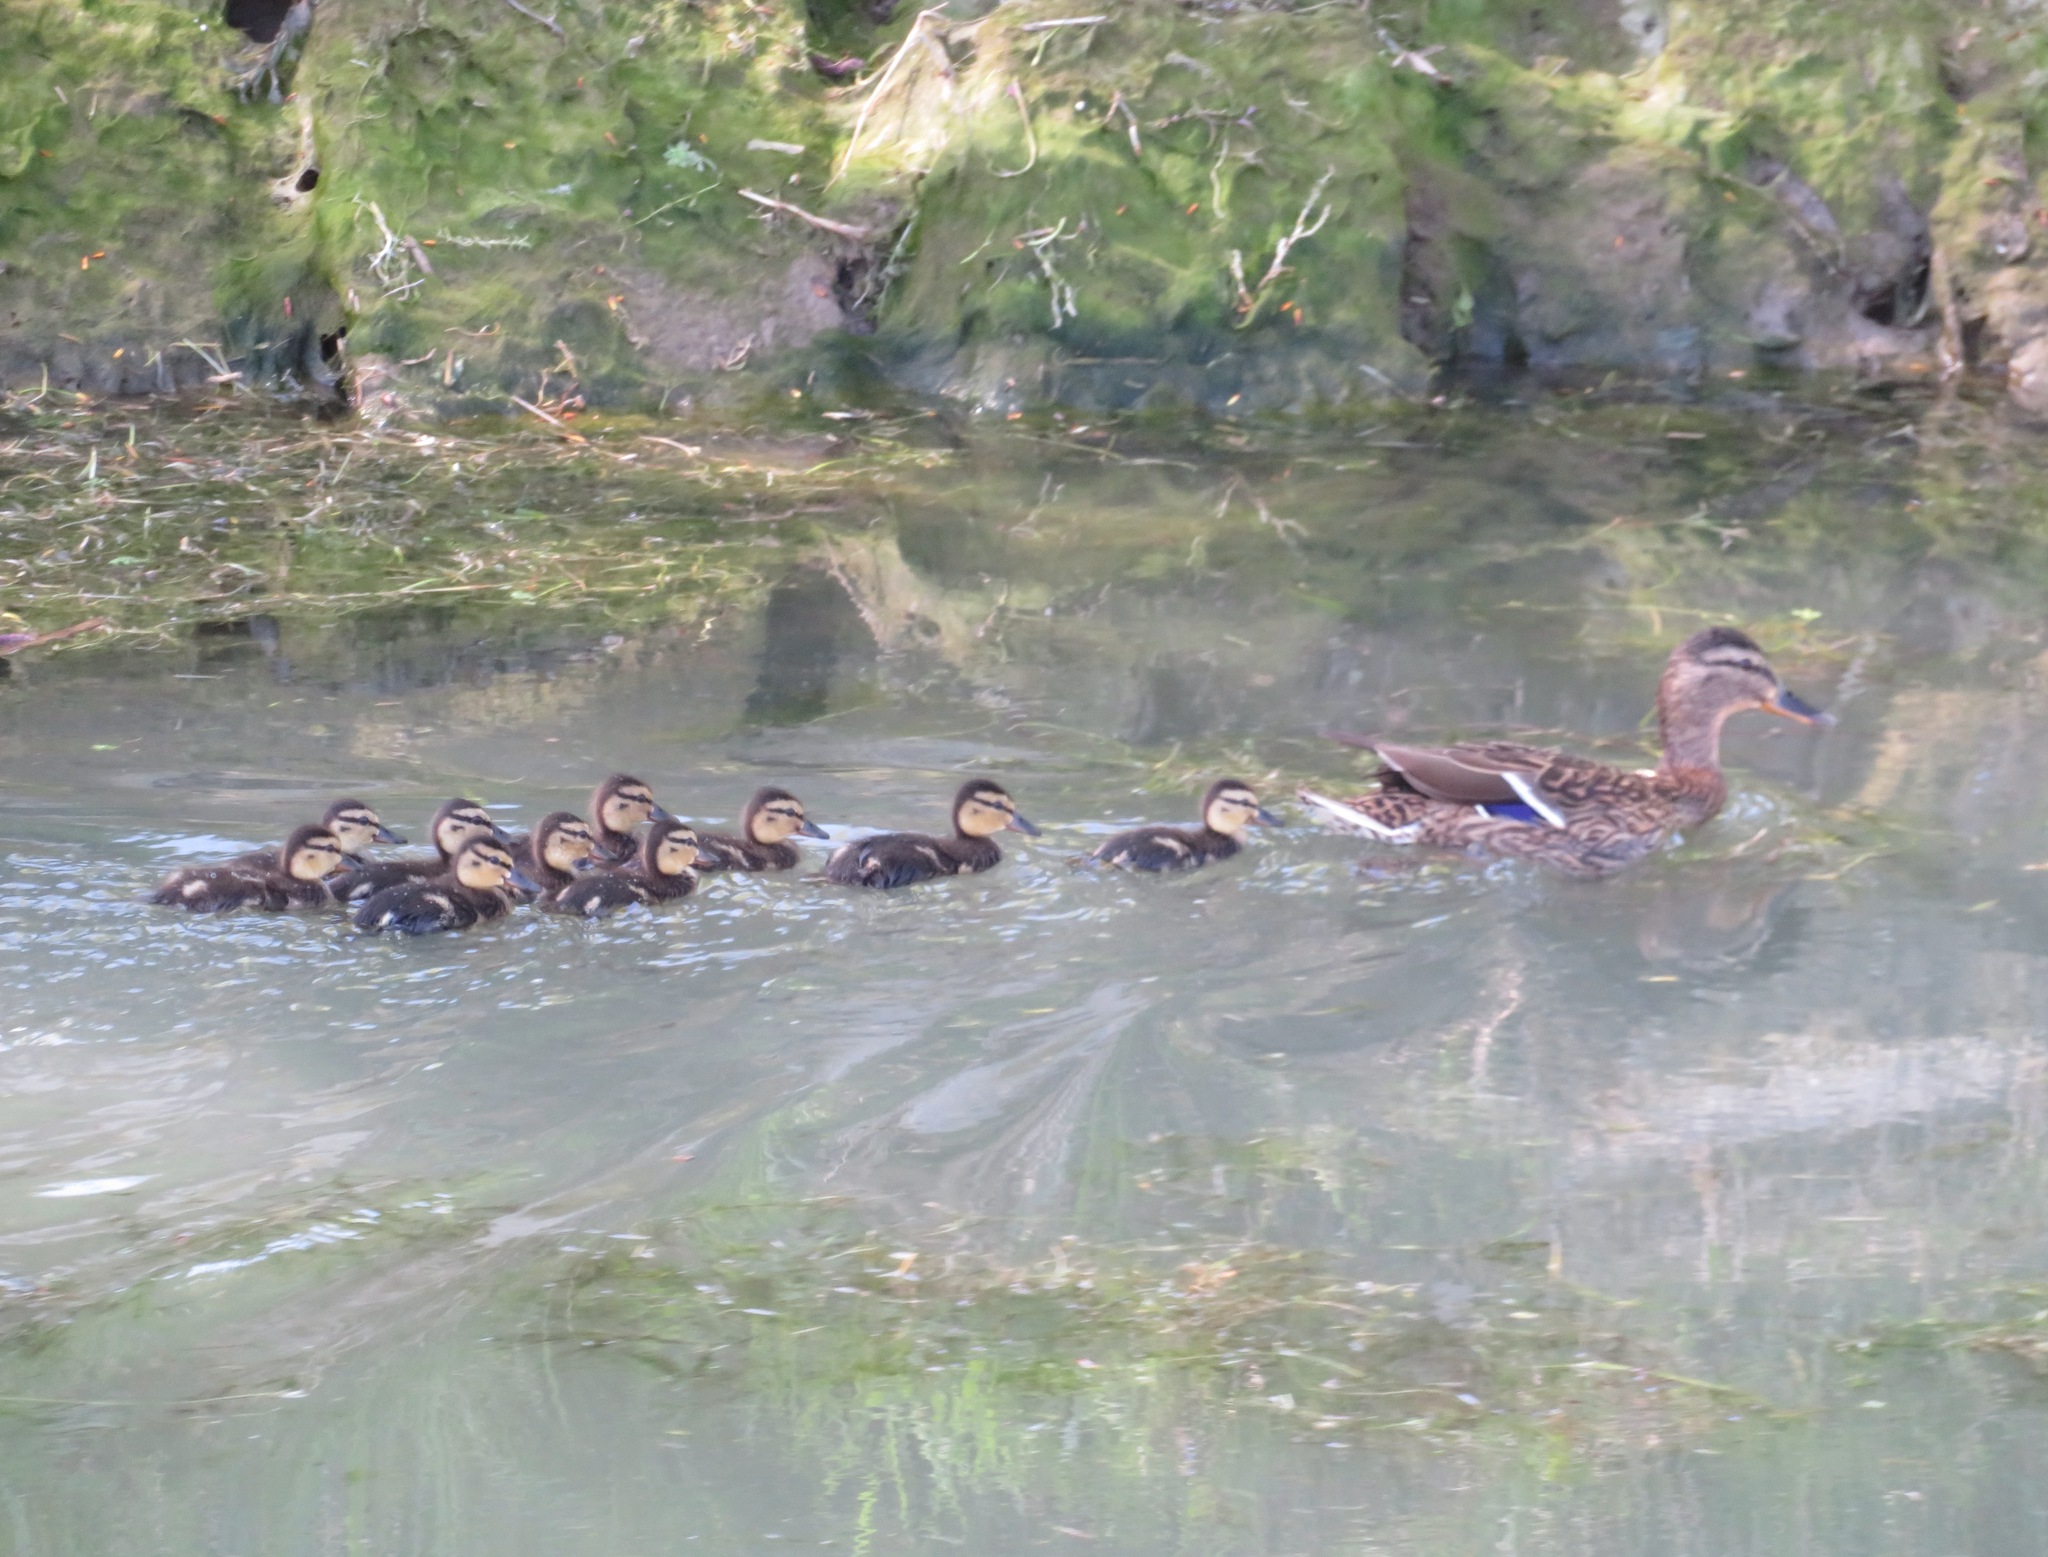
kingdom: Animalia
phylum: Chordata
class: Aves
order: Anseriformes
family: Anatidae
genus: Anas
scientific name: Anas platyrhynchos
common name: Mallard
